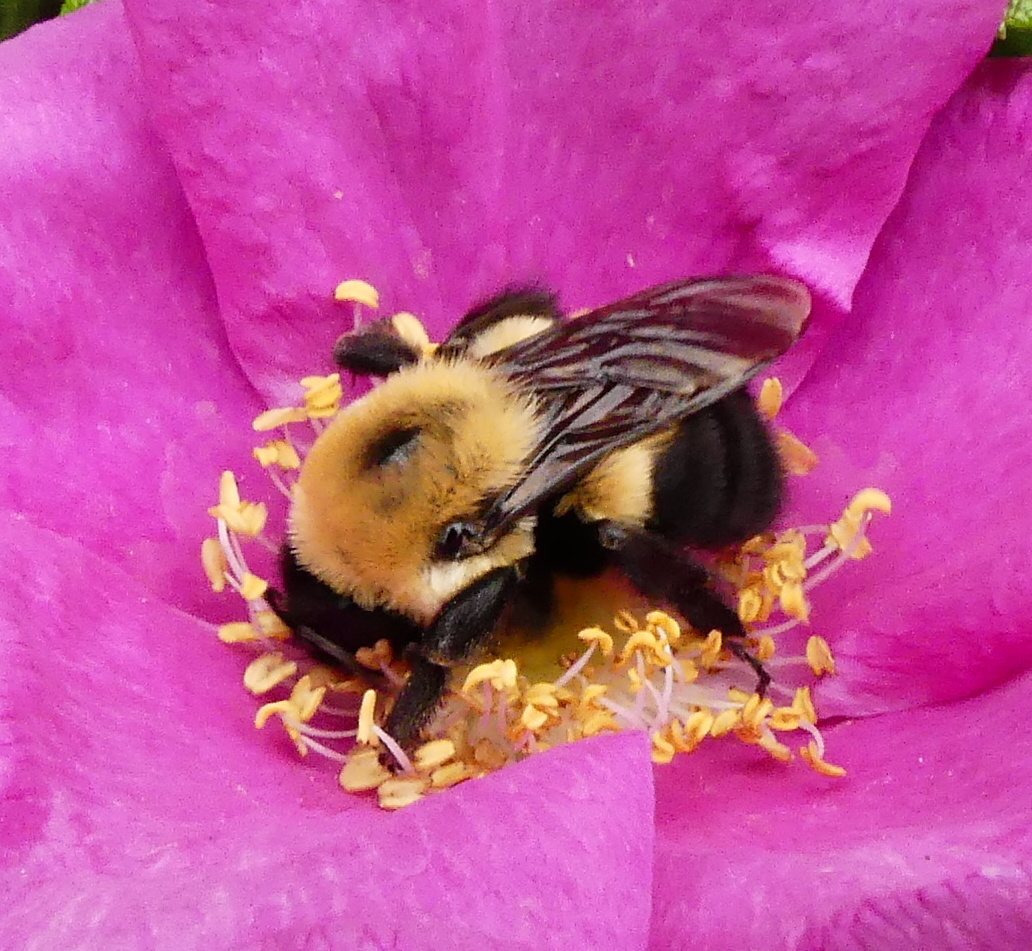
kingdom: Animalia
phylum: Arthropoda
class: Insecta
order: Hymenoptera
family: Apidae
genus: Bombus
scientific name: Bombus griseocollis
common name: Brown-belted bumble bee
